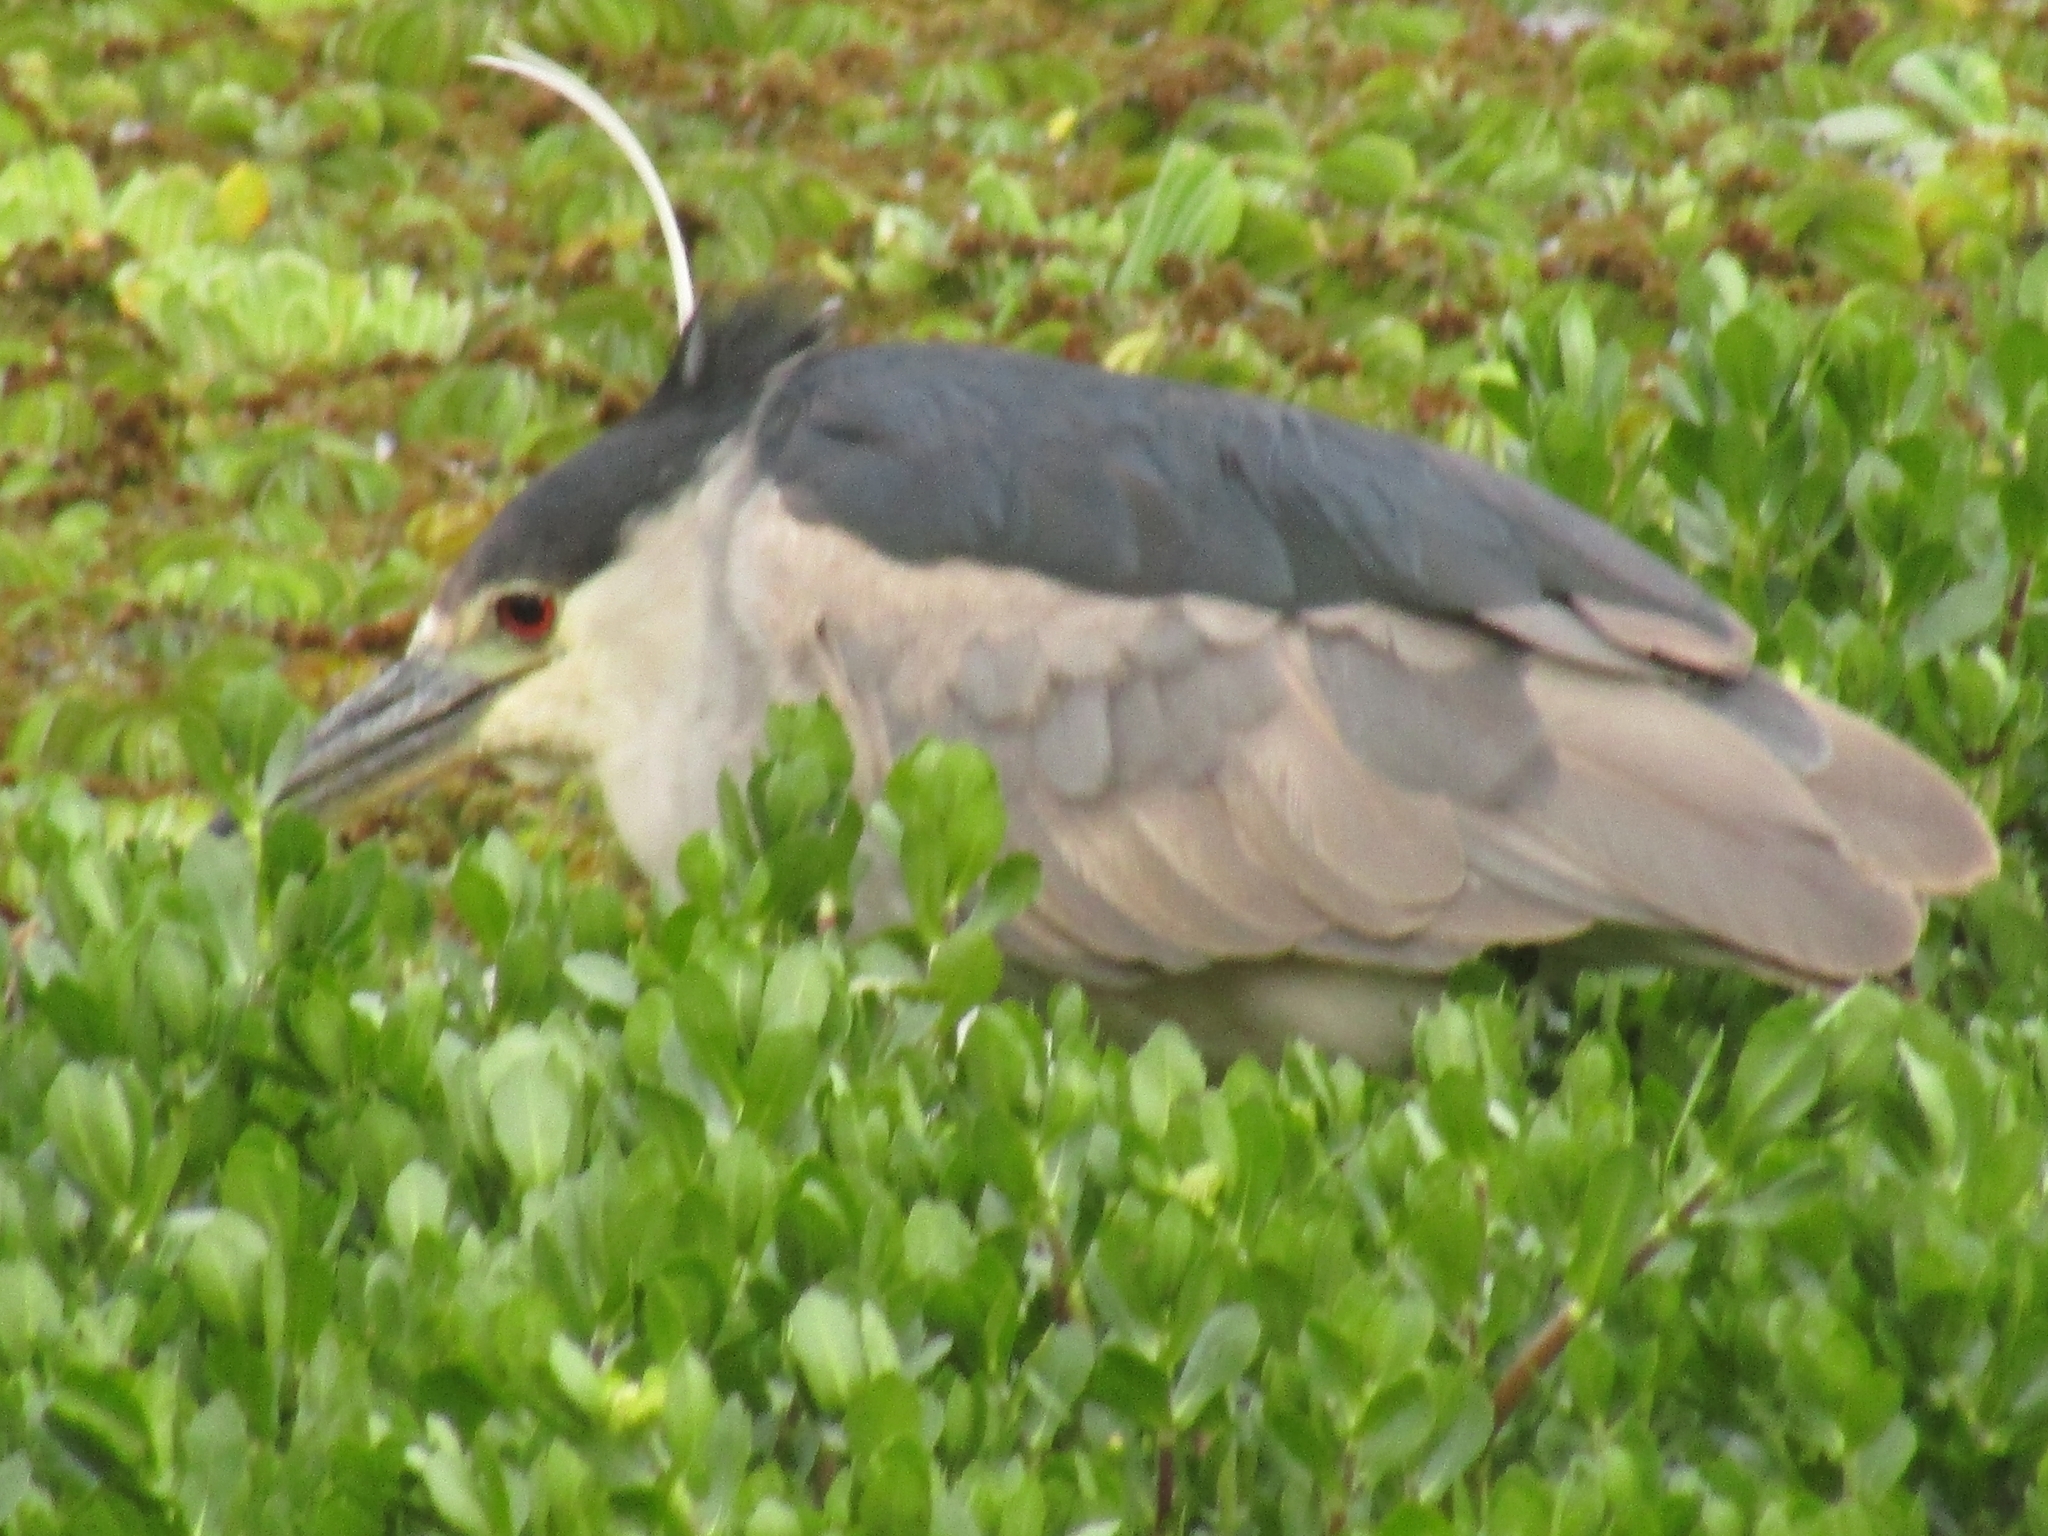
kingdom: Animalia
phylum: Chordata
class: Aves
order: Pelecaniformes
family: Ardeidae
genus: Nycticorax
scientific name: Nycticorax nycticorax
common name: Black-crowned night heron
